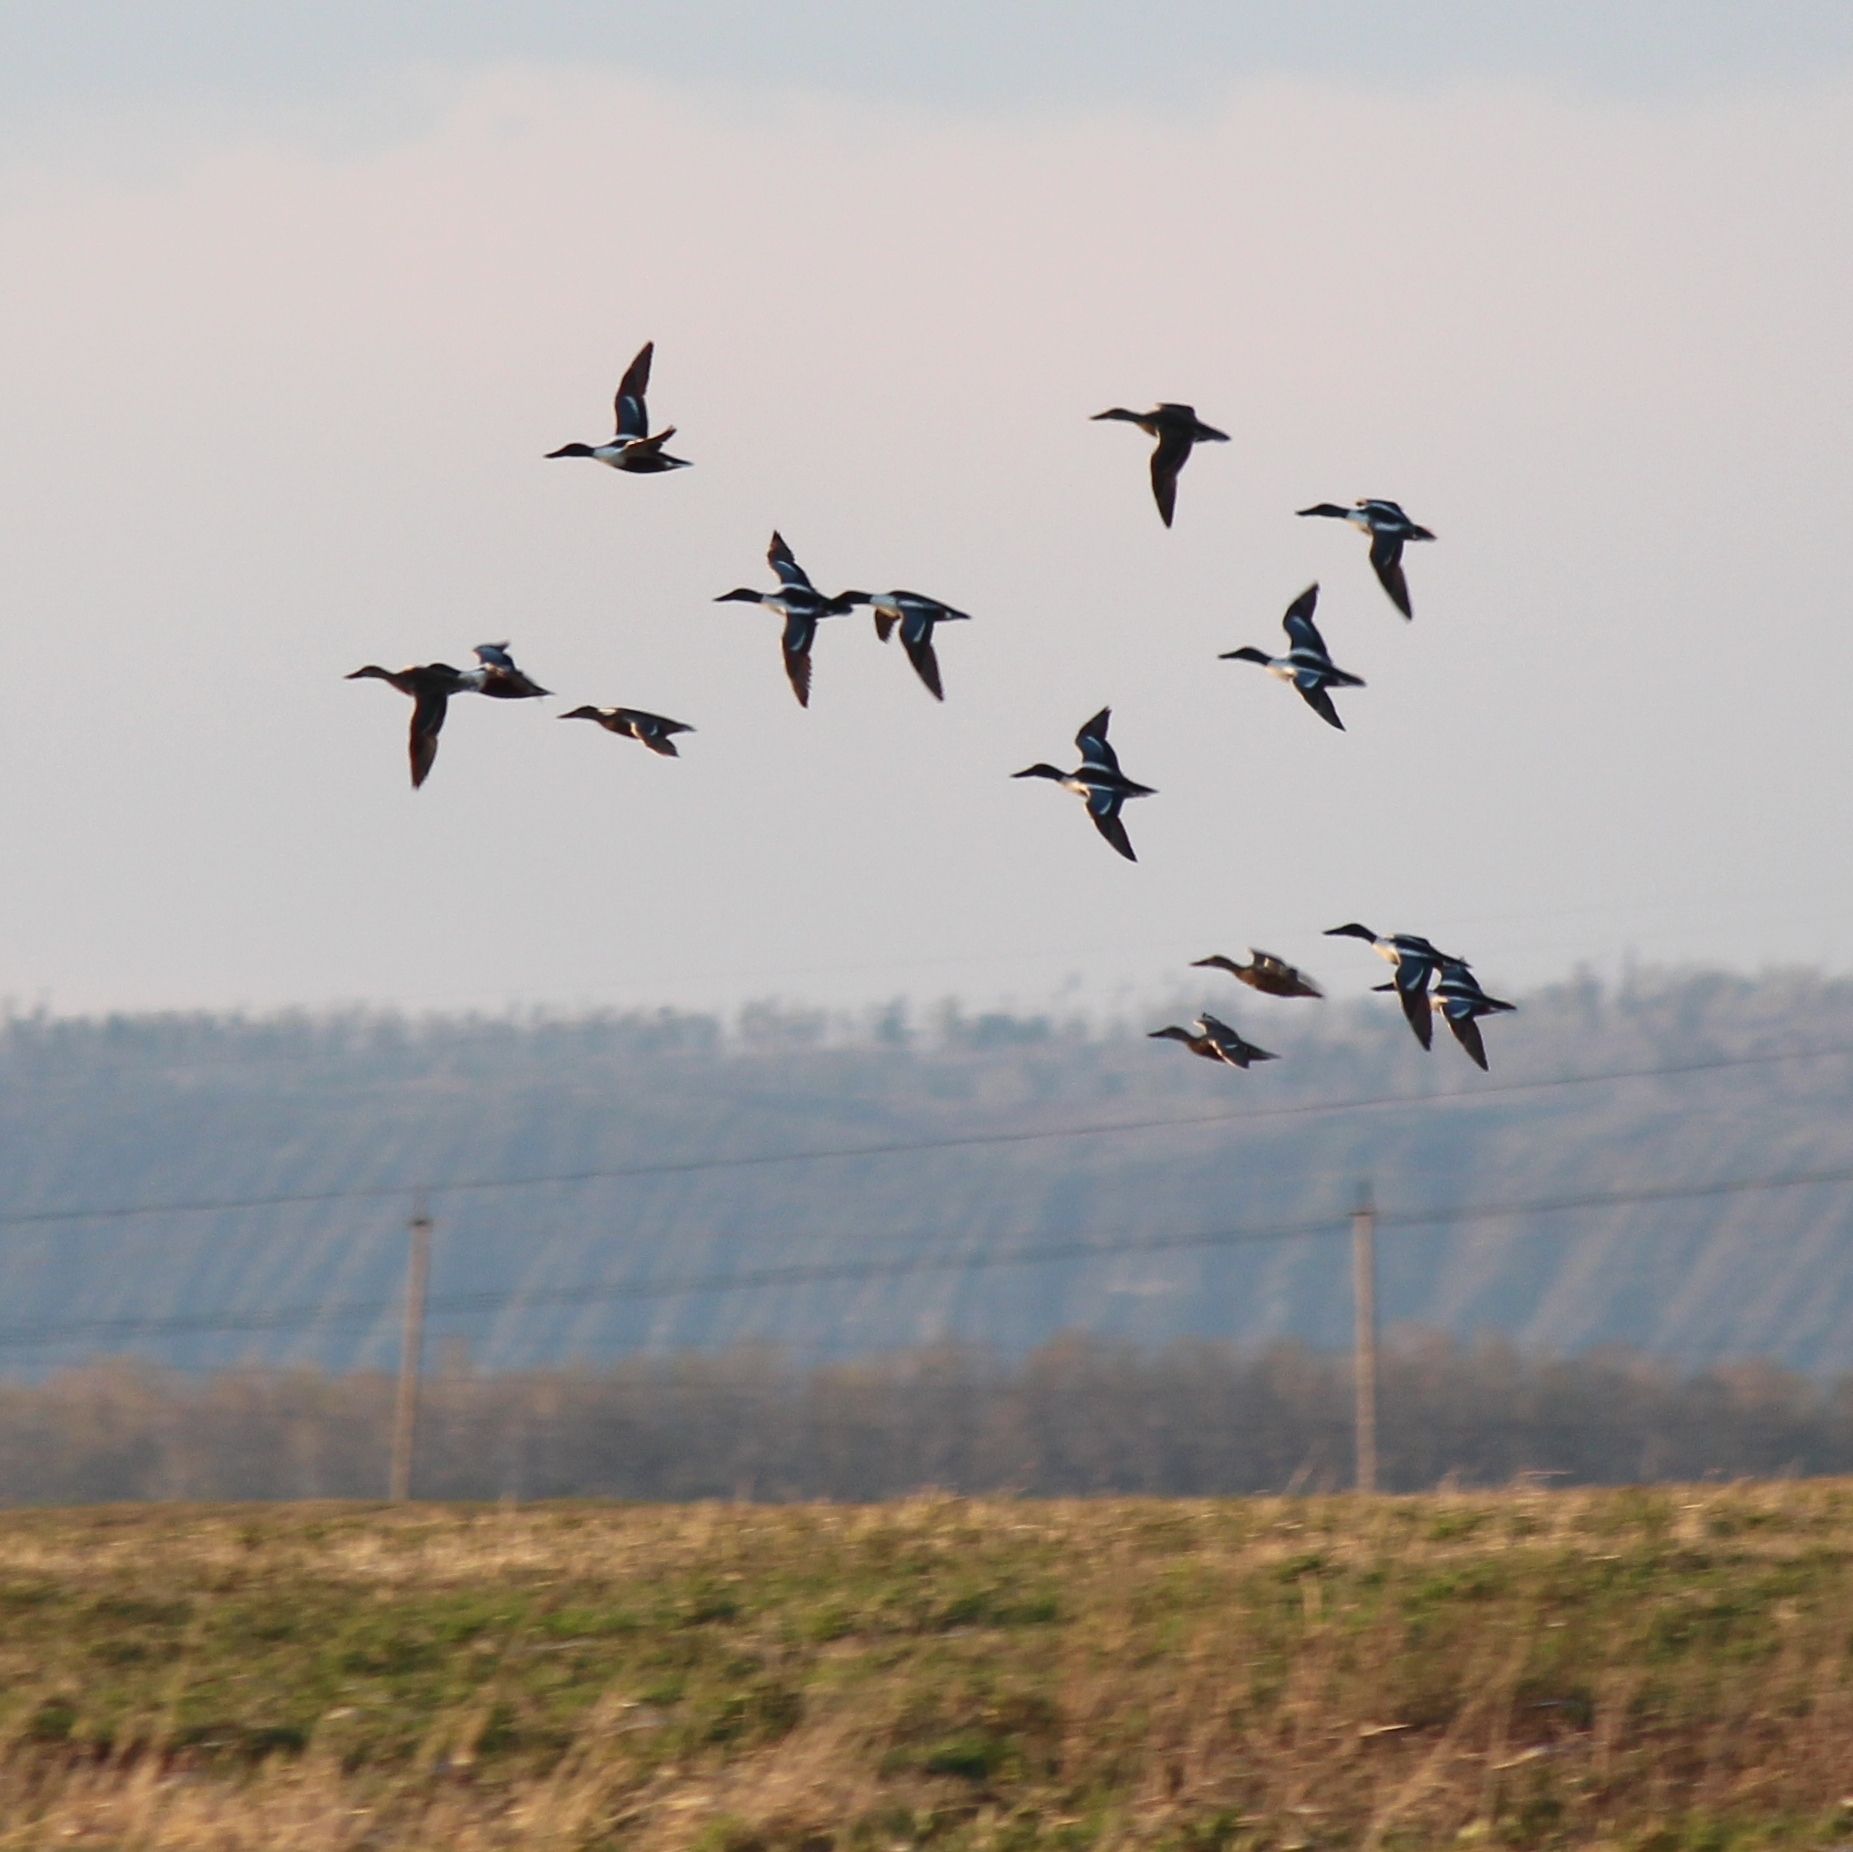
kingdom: Animalia
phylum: Chordata
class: Aves
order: Anseriformes
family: Anatidae
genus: Spatula
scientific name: Spatula clypeata
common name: Northern shoveler
